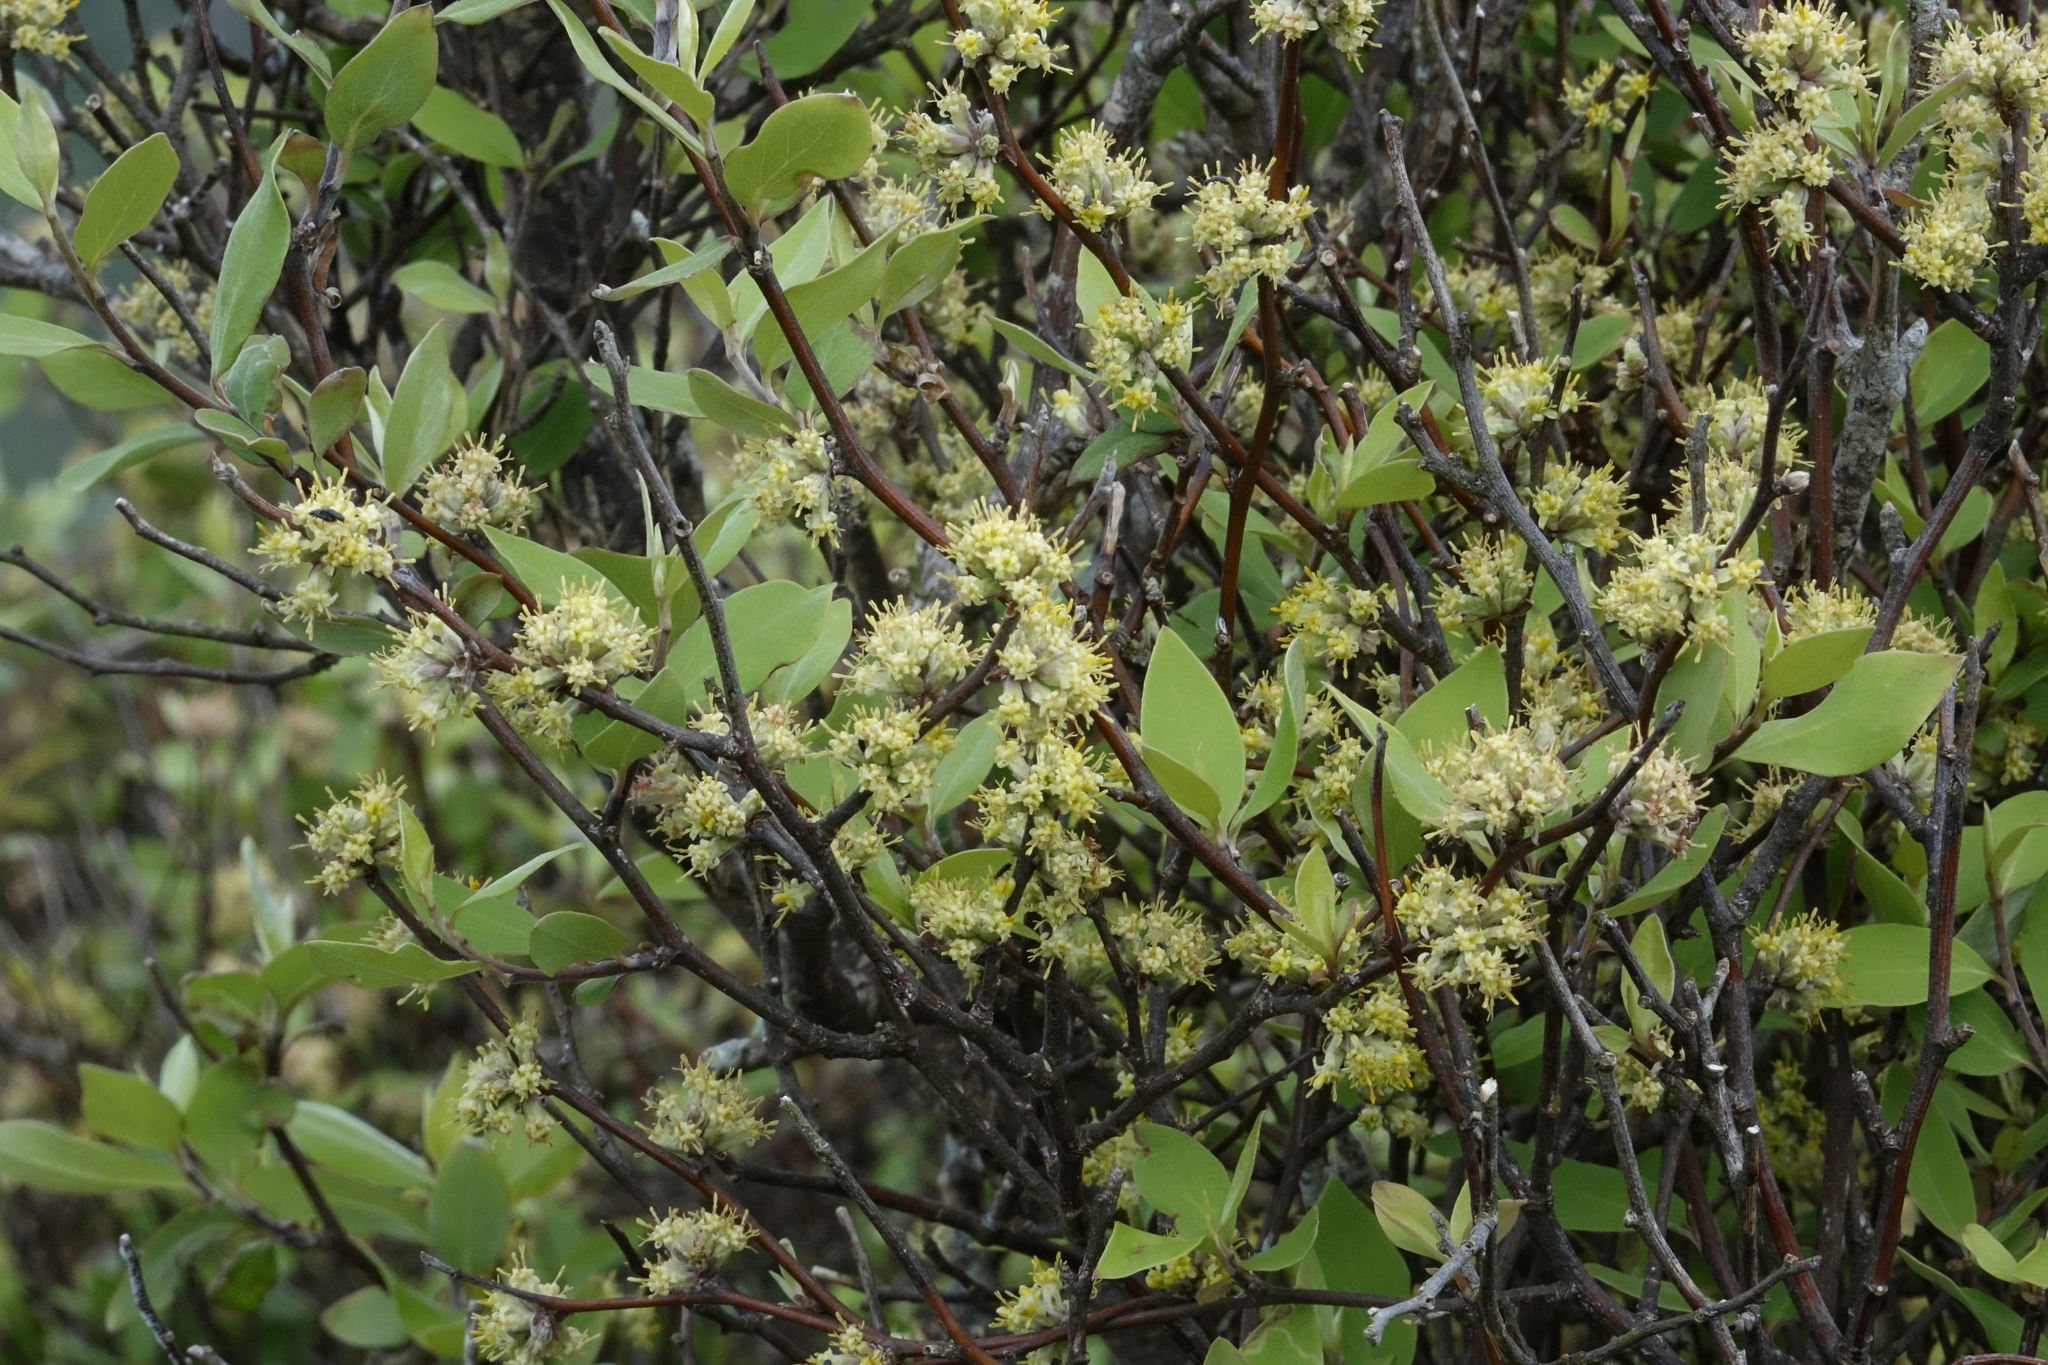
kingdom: Plantae
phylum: Tracheophyta
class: Magnoliopsida
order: Asterales
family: Asteraceae
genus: Olearia
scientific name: Olearia fragrantissima
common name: Fragrant tree daisy
